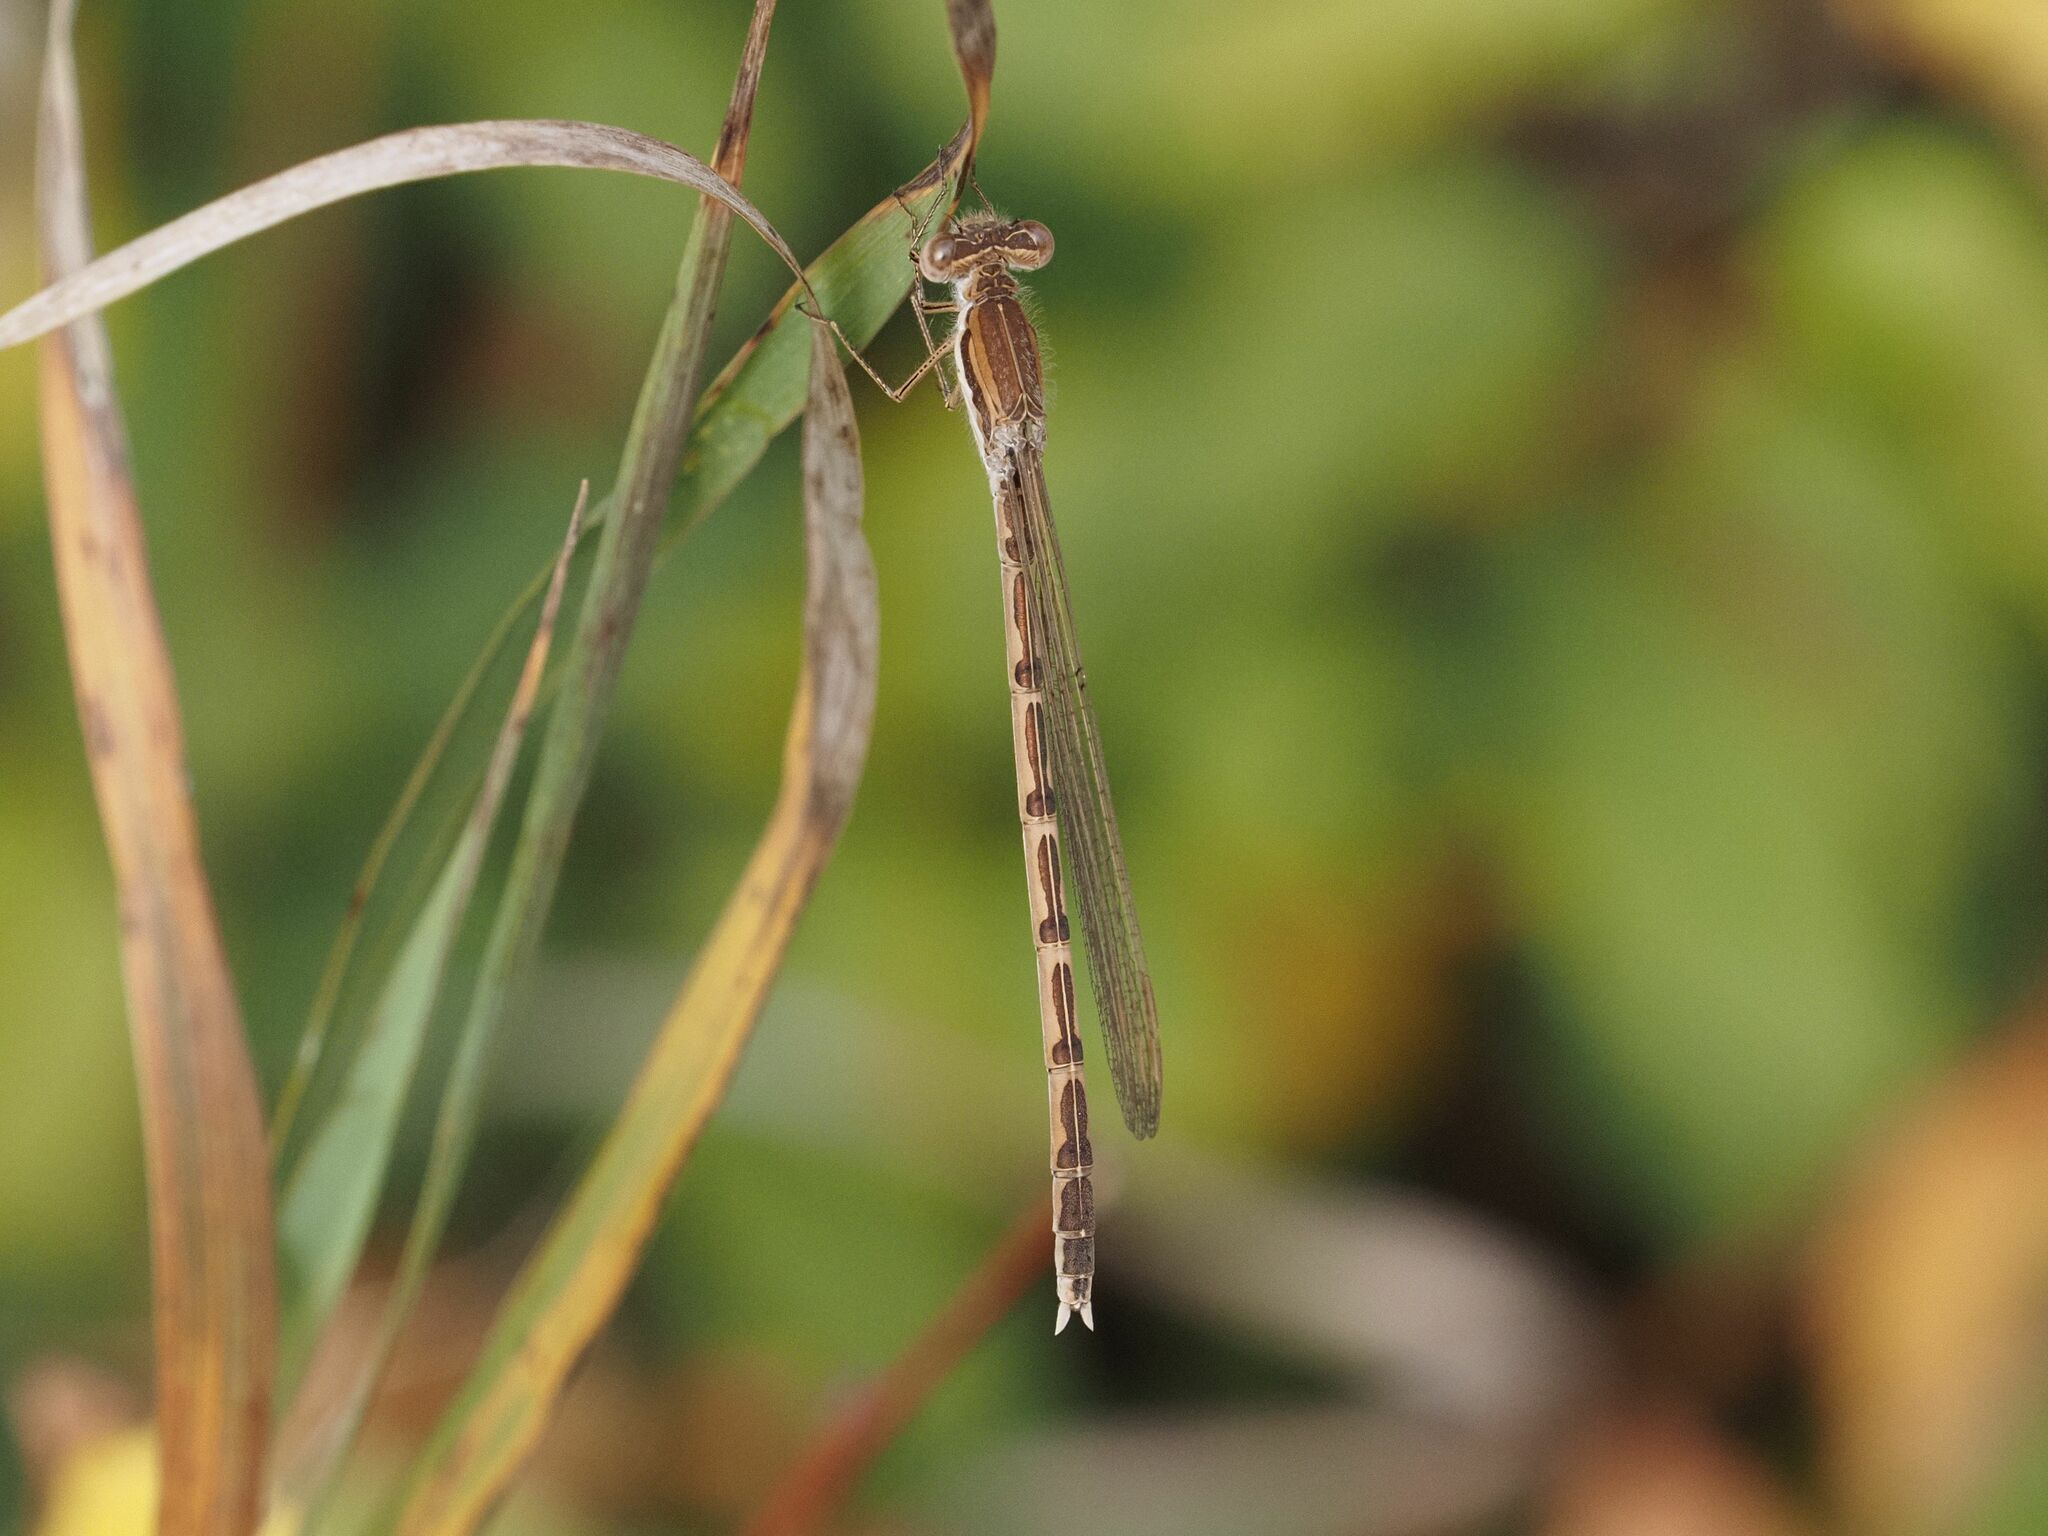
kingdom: Animalia
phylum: Arthropoda
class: Insecta
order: Odonata
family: Lestidae
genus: Sympecma
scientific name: Sympecma fusca
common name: Common winter damsel
